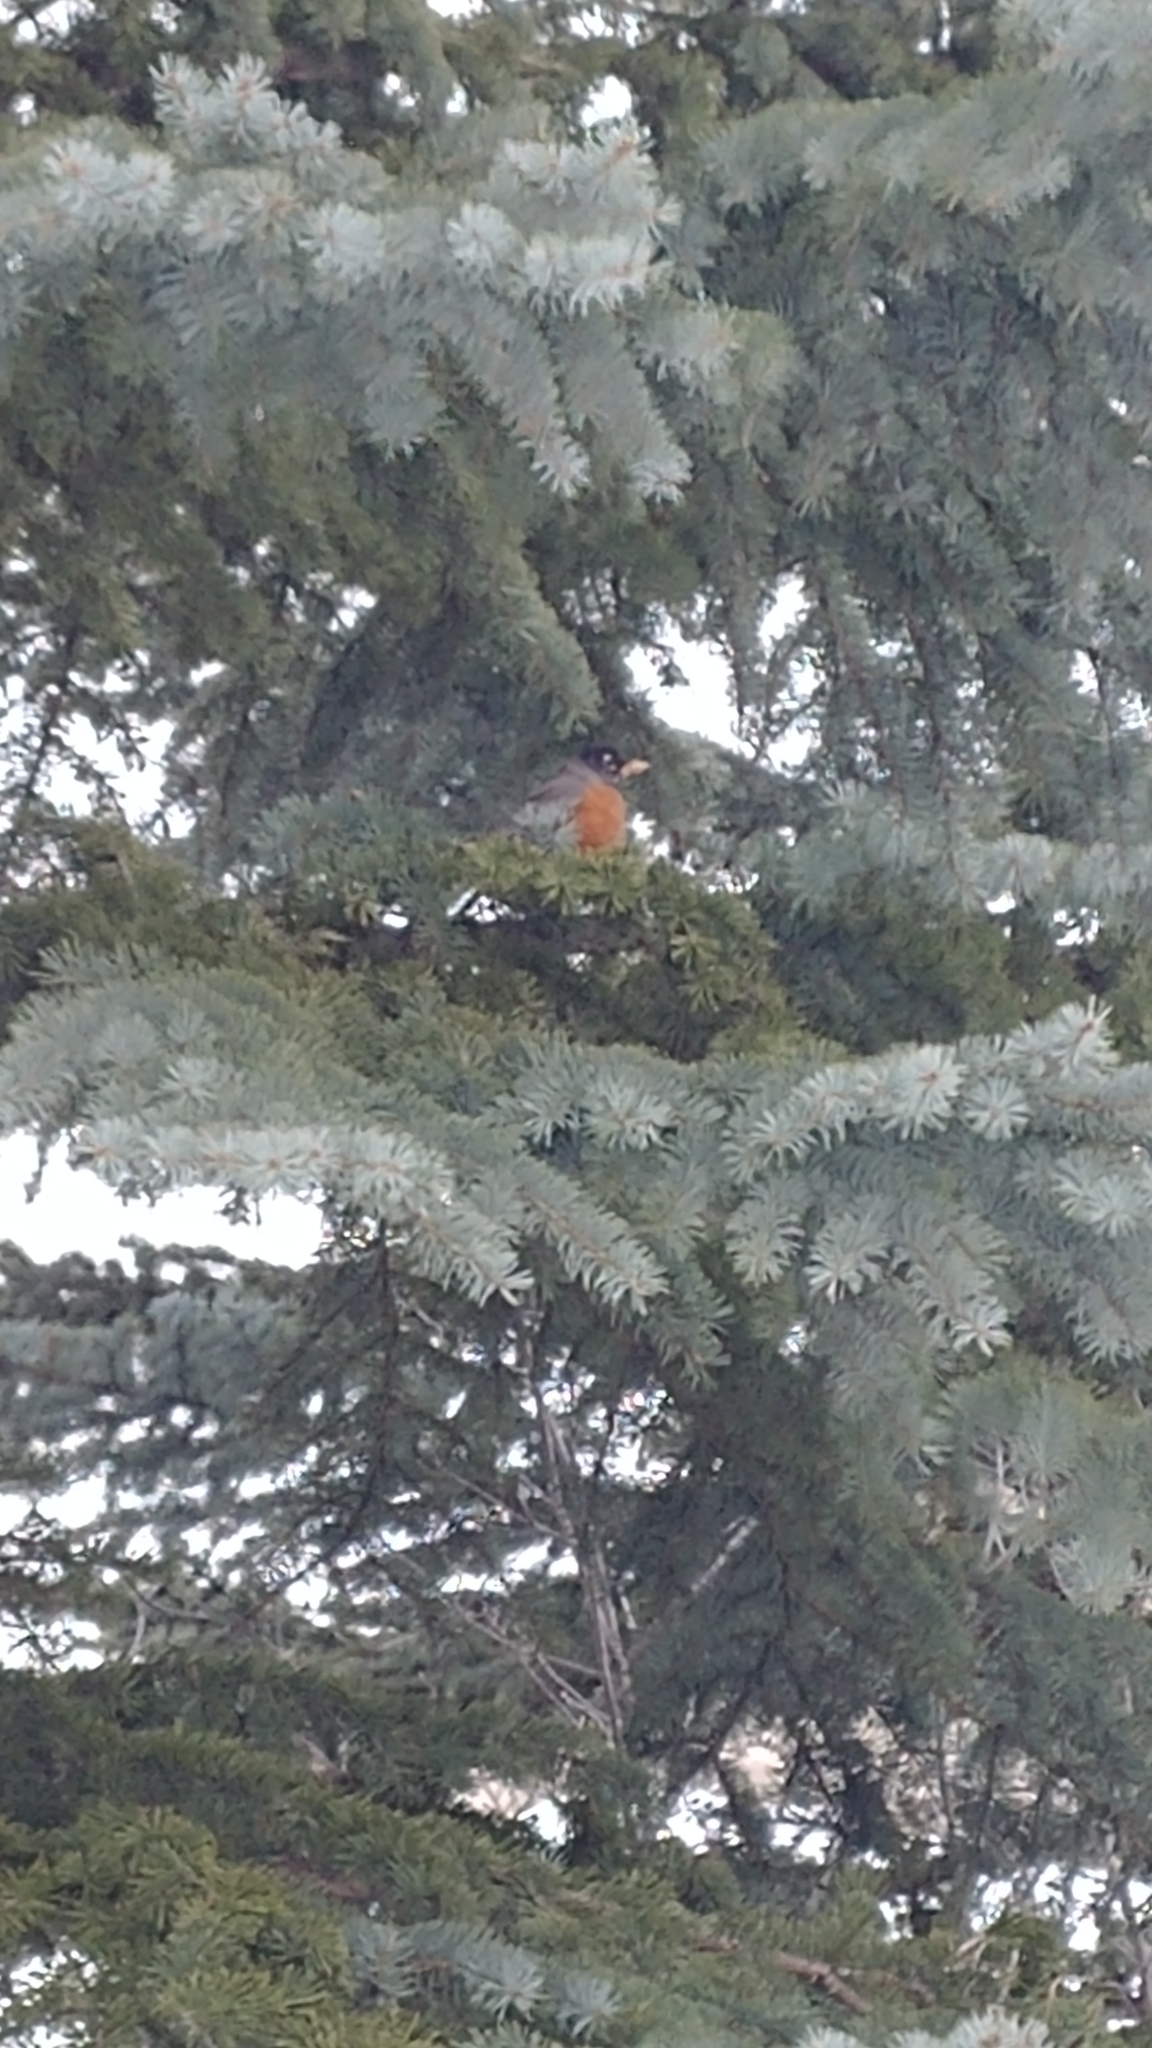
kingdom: Animalia
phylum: Chordata
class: Aves
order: Passeriformes
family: Turdidae
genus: Turdus
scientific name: Turdus migratorius
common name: American robin
